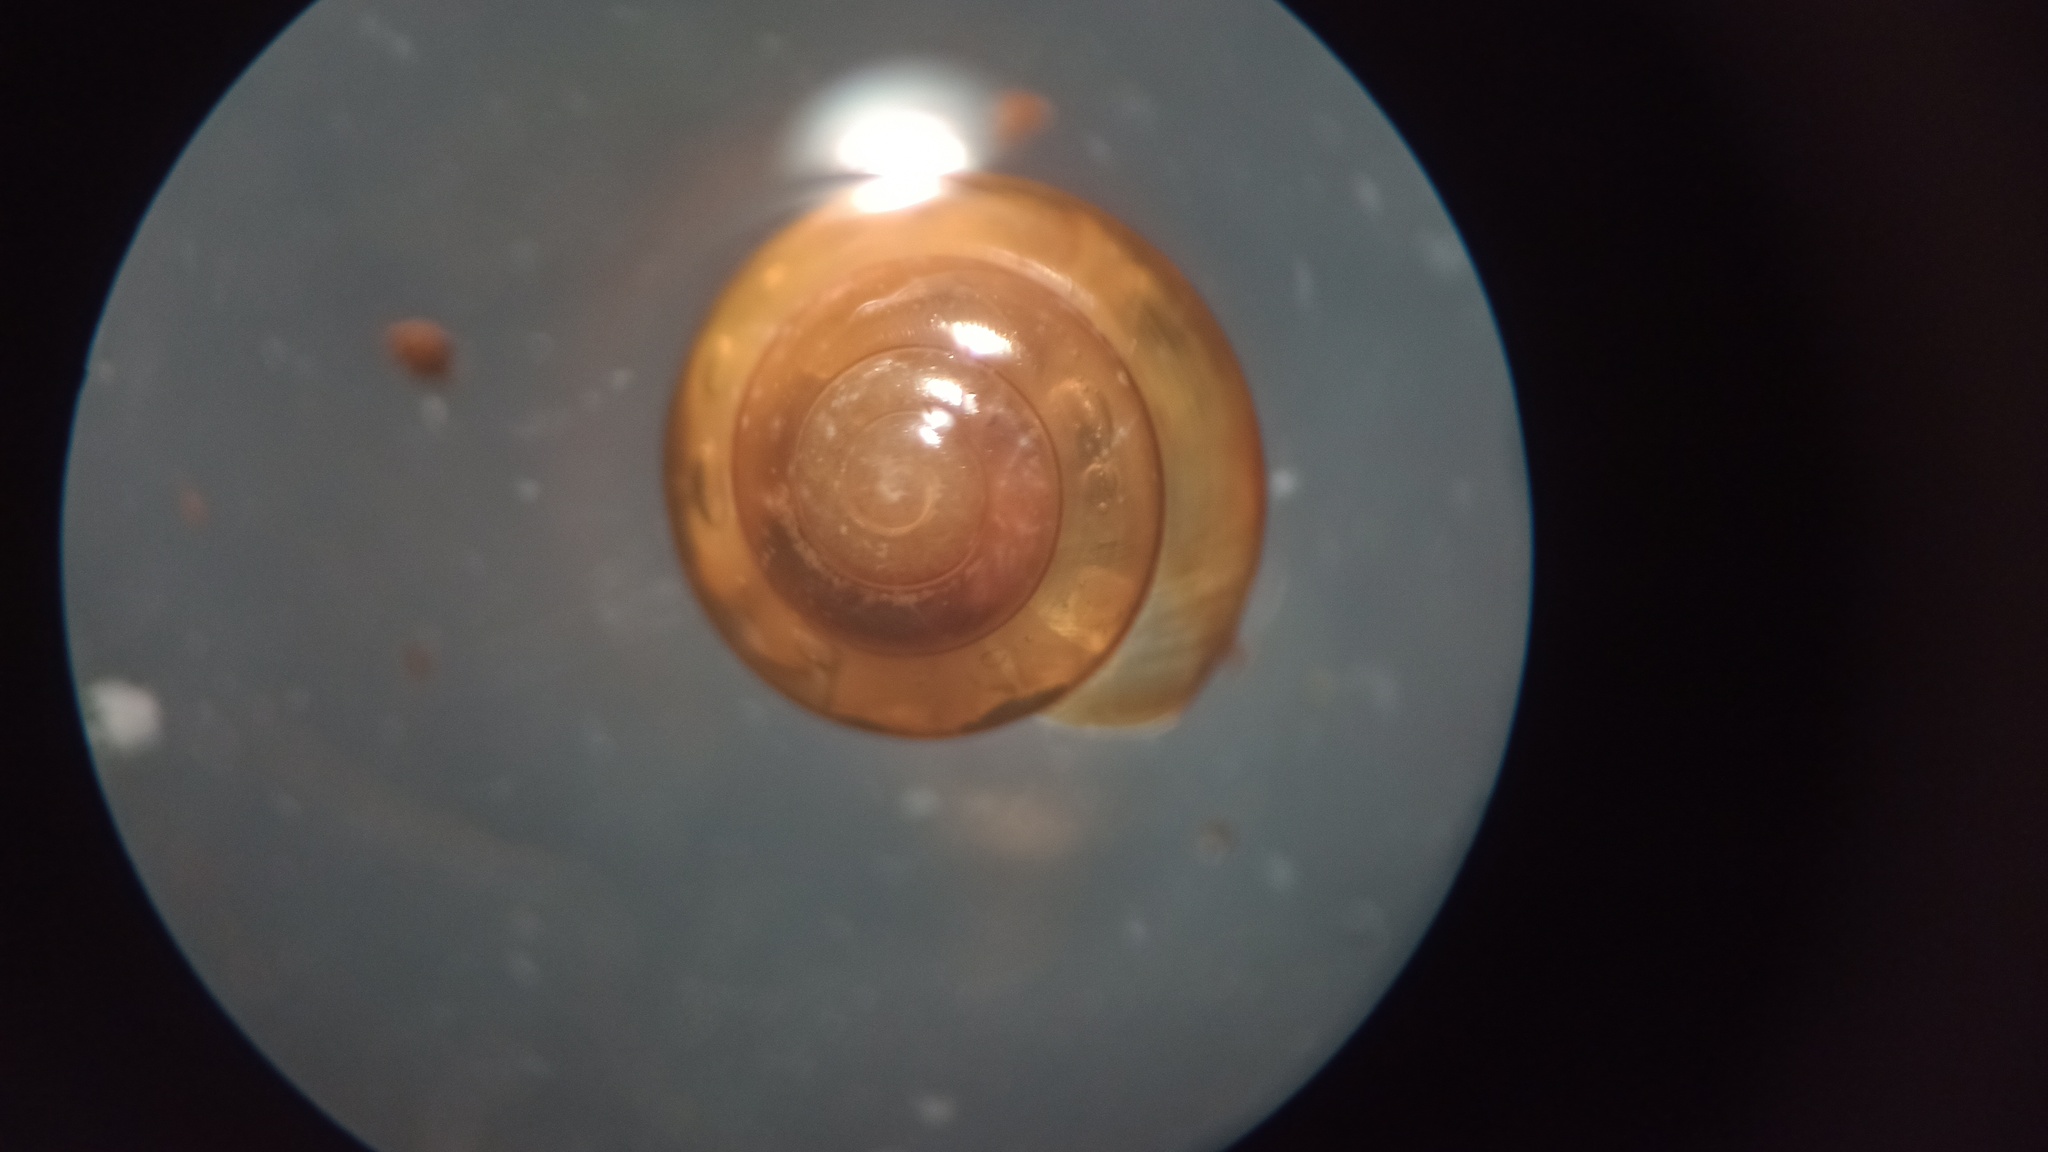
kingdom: Animalia
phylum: Mollusca
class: Gastropoda
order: Stylommatophora
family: Euconulidae
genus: Habroconus
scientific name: Habroconus semenlini
